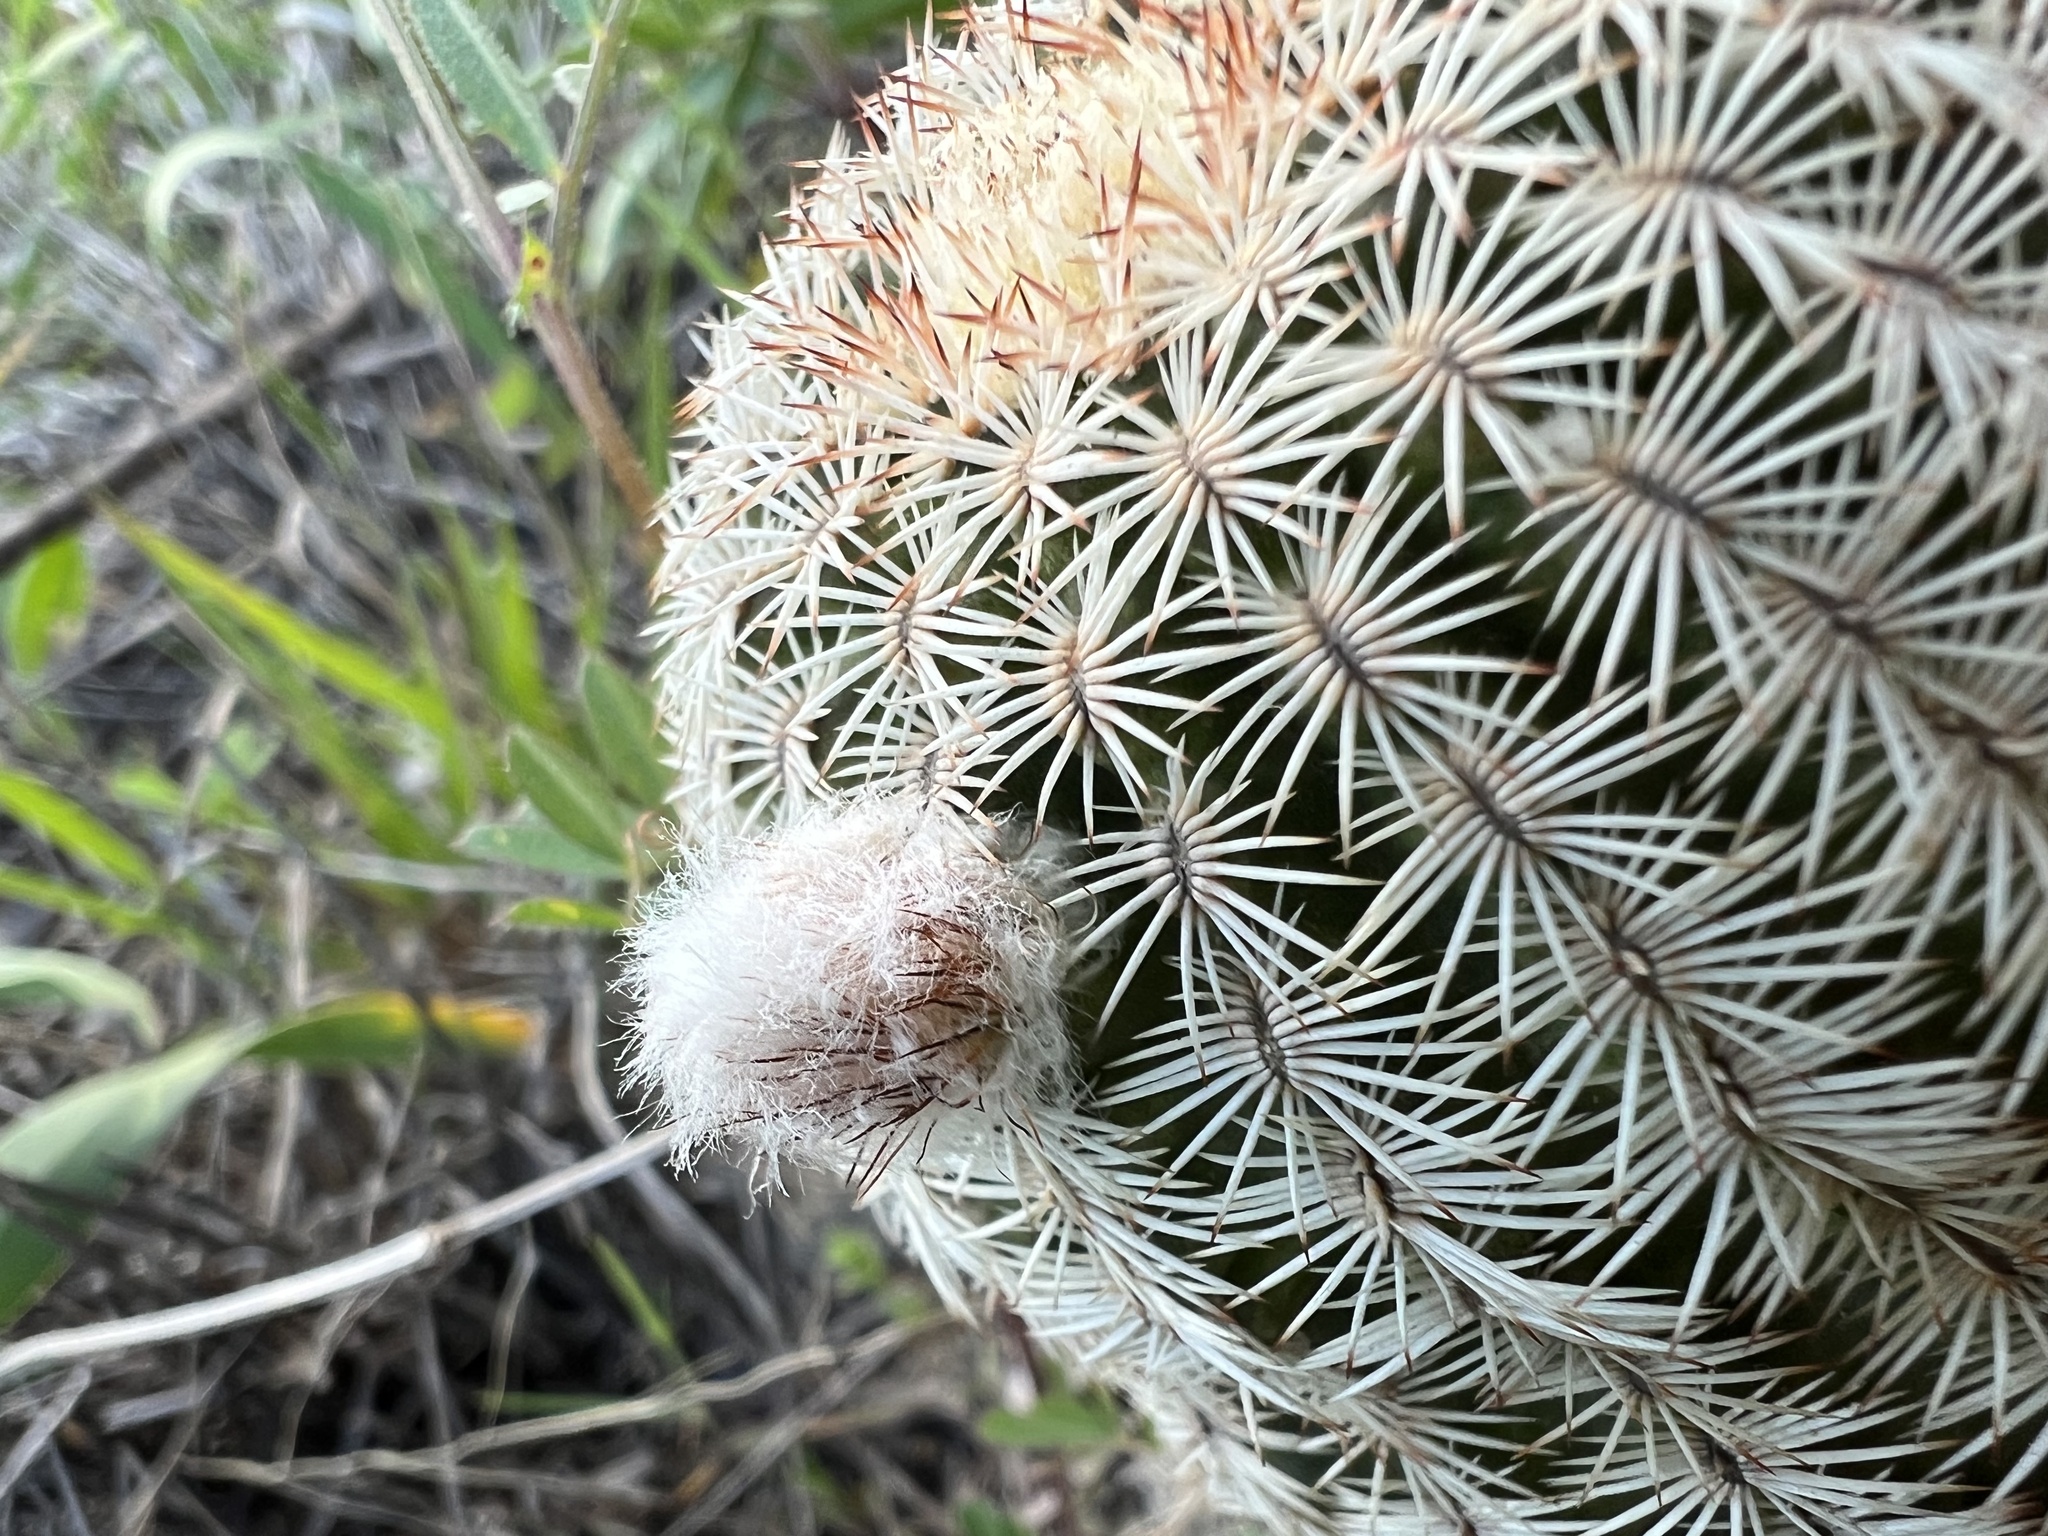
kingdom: Plantae
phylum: Tracheophyta
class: Magnoliopsida
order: Caryophyllales
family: Cactaceae
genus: Echinocereus
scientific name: Echinocereus reichenbachii
